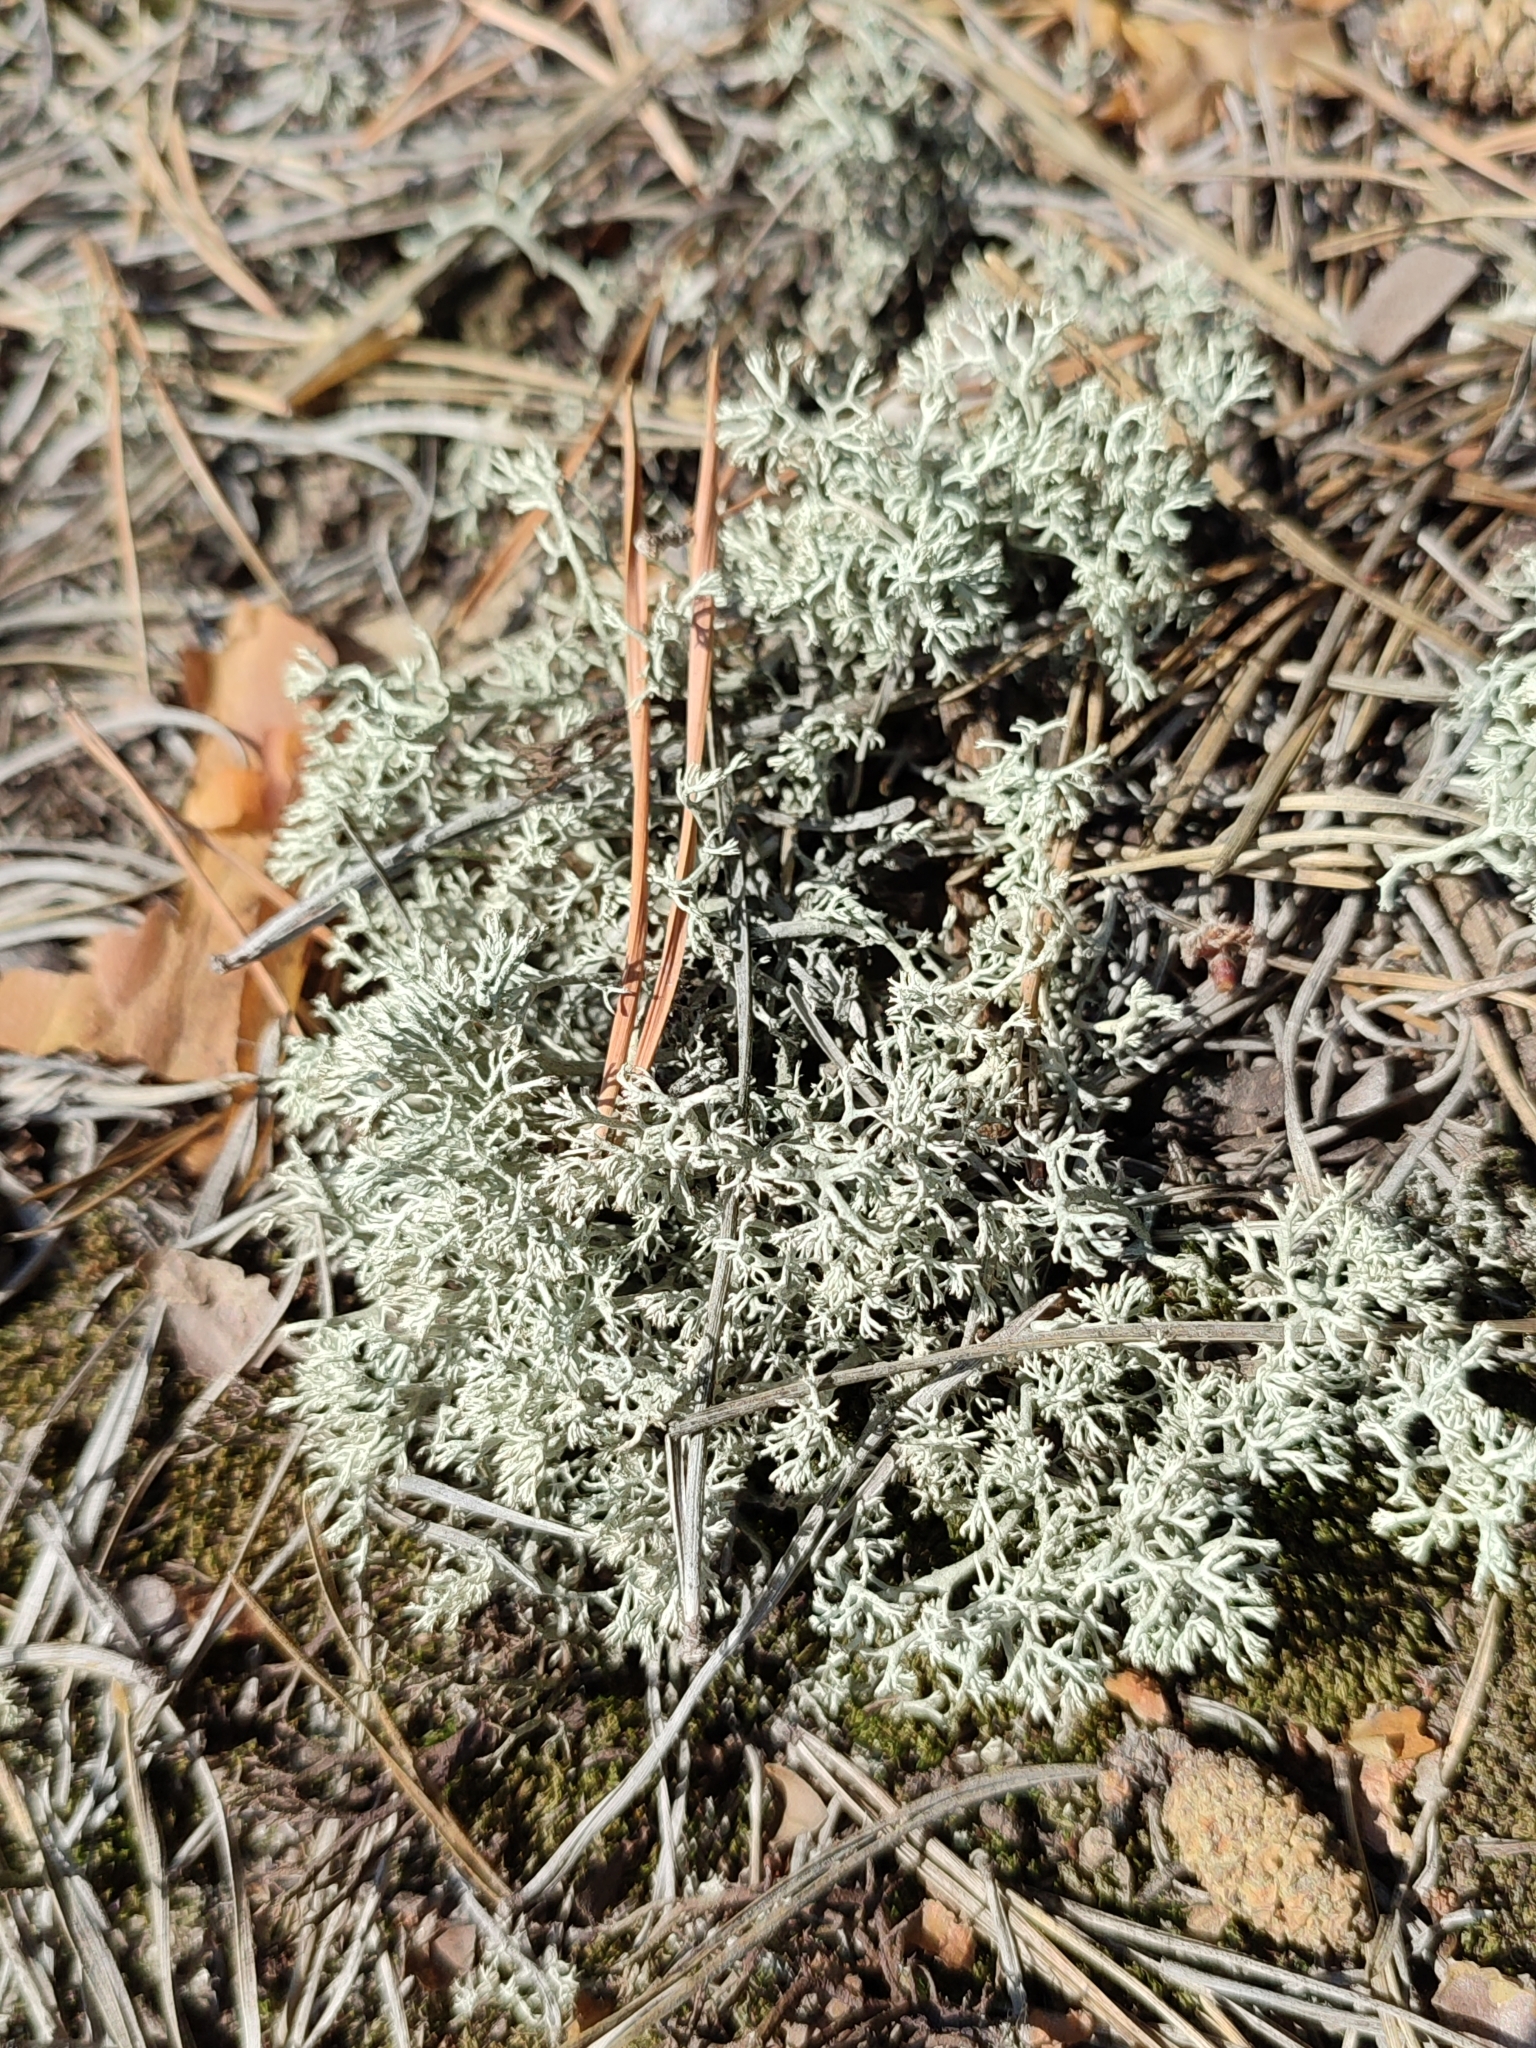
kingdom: Fungi
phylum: Ascomycota
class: Lecanoromycetes
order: Lecanorales
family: Cladoniaceae
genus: Cladonia
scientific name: Cladonia mitis
